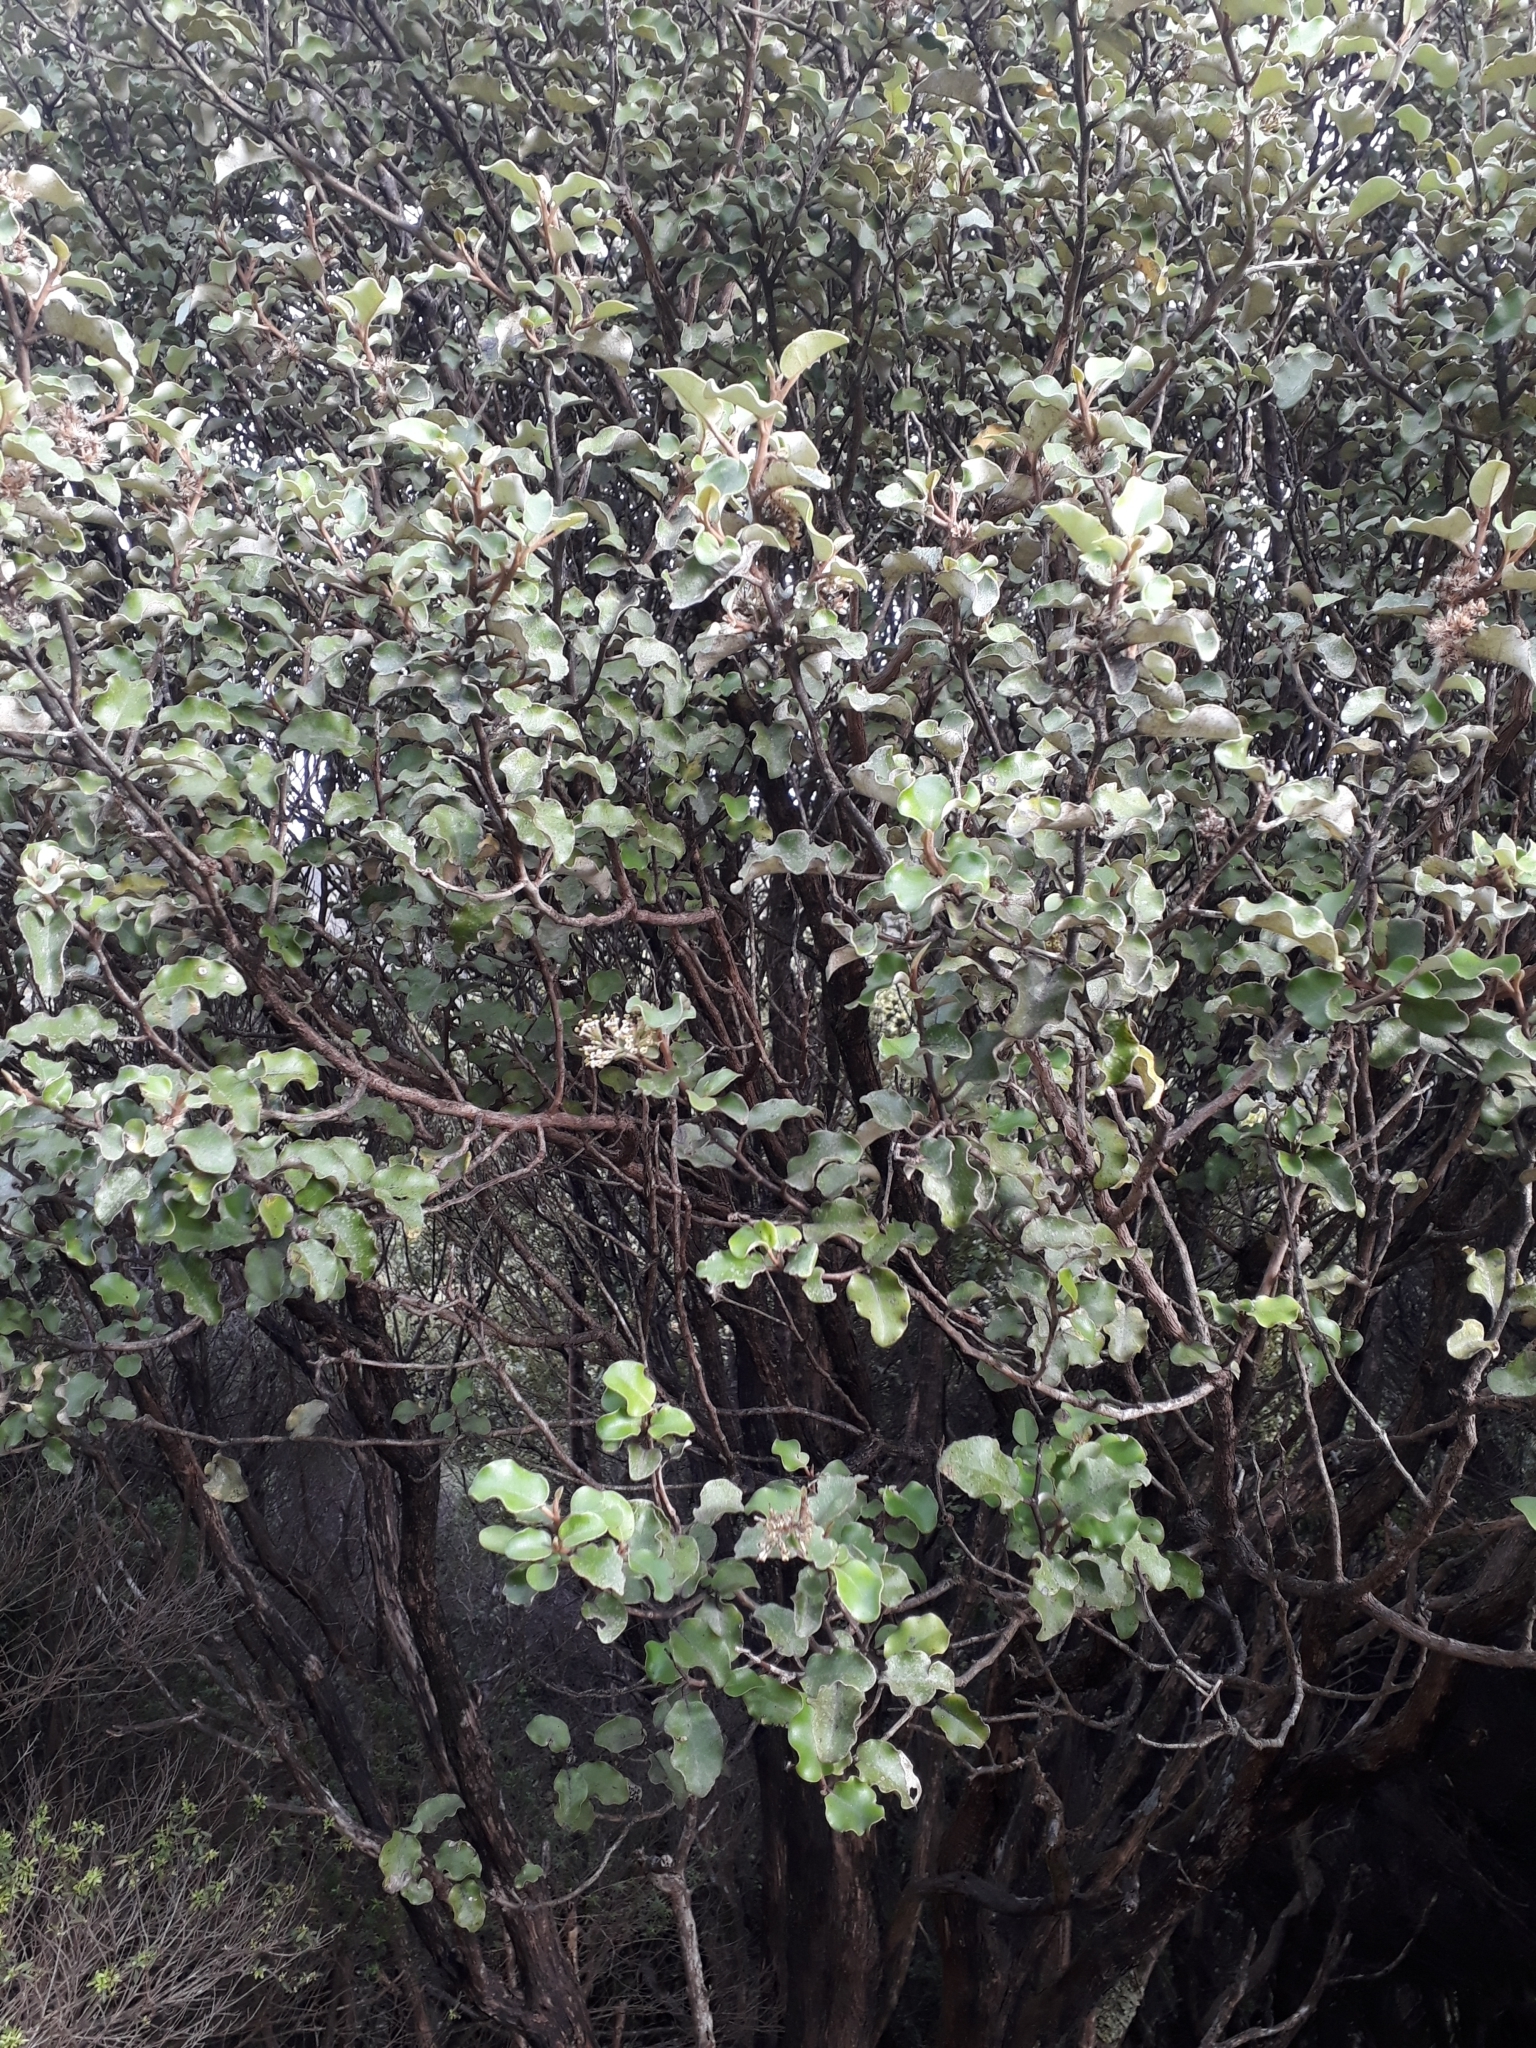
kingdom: Plantae
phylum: Tracheophyta
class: Magnoliopsida
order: Asterales
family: Asteraceae
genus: Olearia
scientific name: Olearia paniculata
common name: Akiraho
